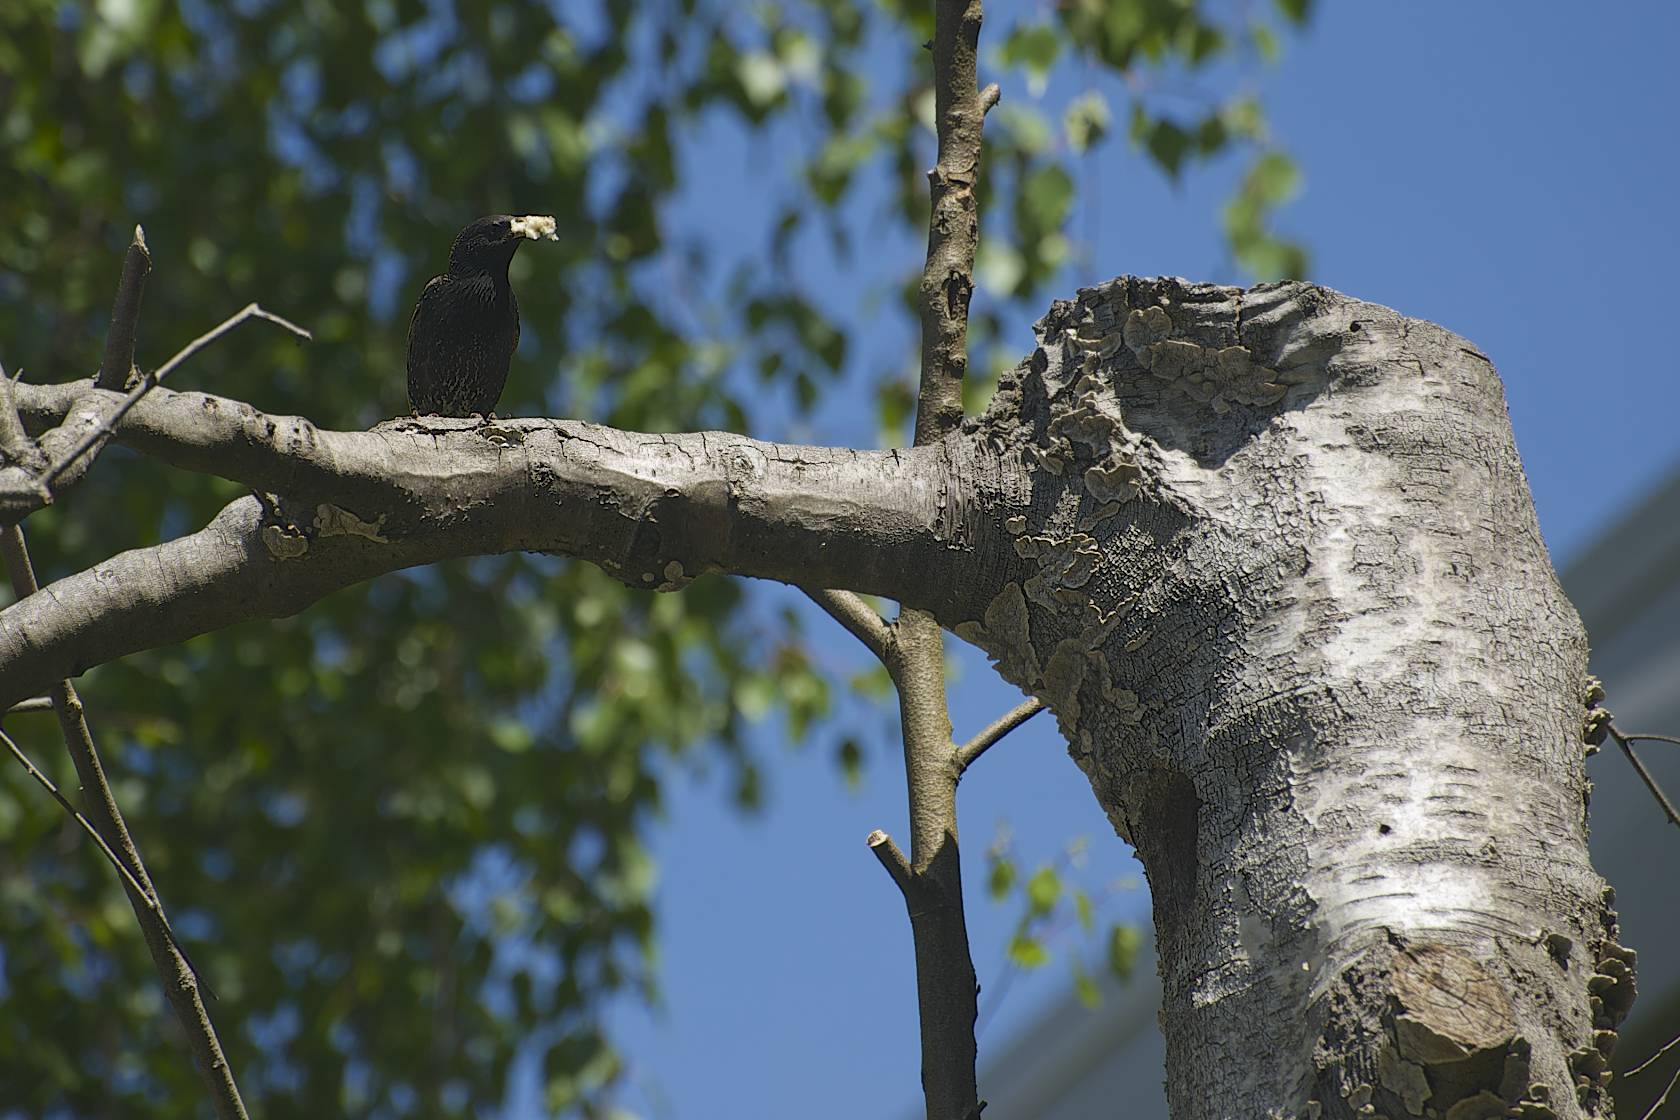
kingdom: Animalia
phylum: Chordata
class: Aves
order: Passeriformes
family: Sturnidae
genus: Sturnus
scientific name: Sturnus vulgaris
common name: Common starling
